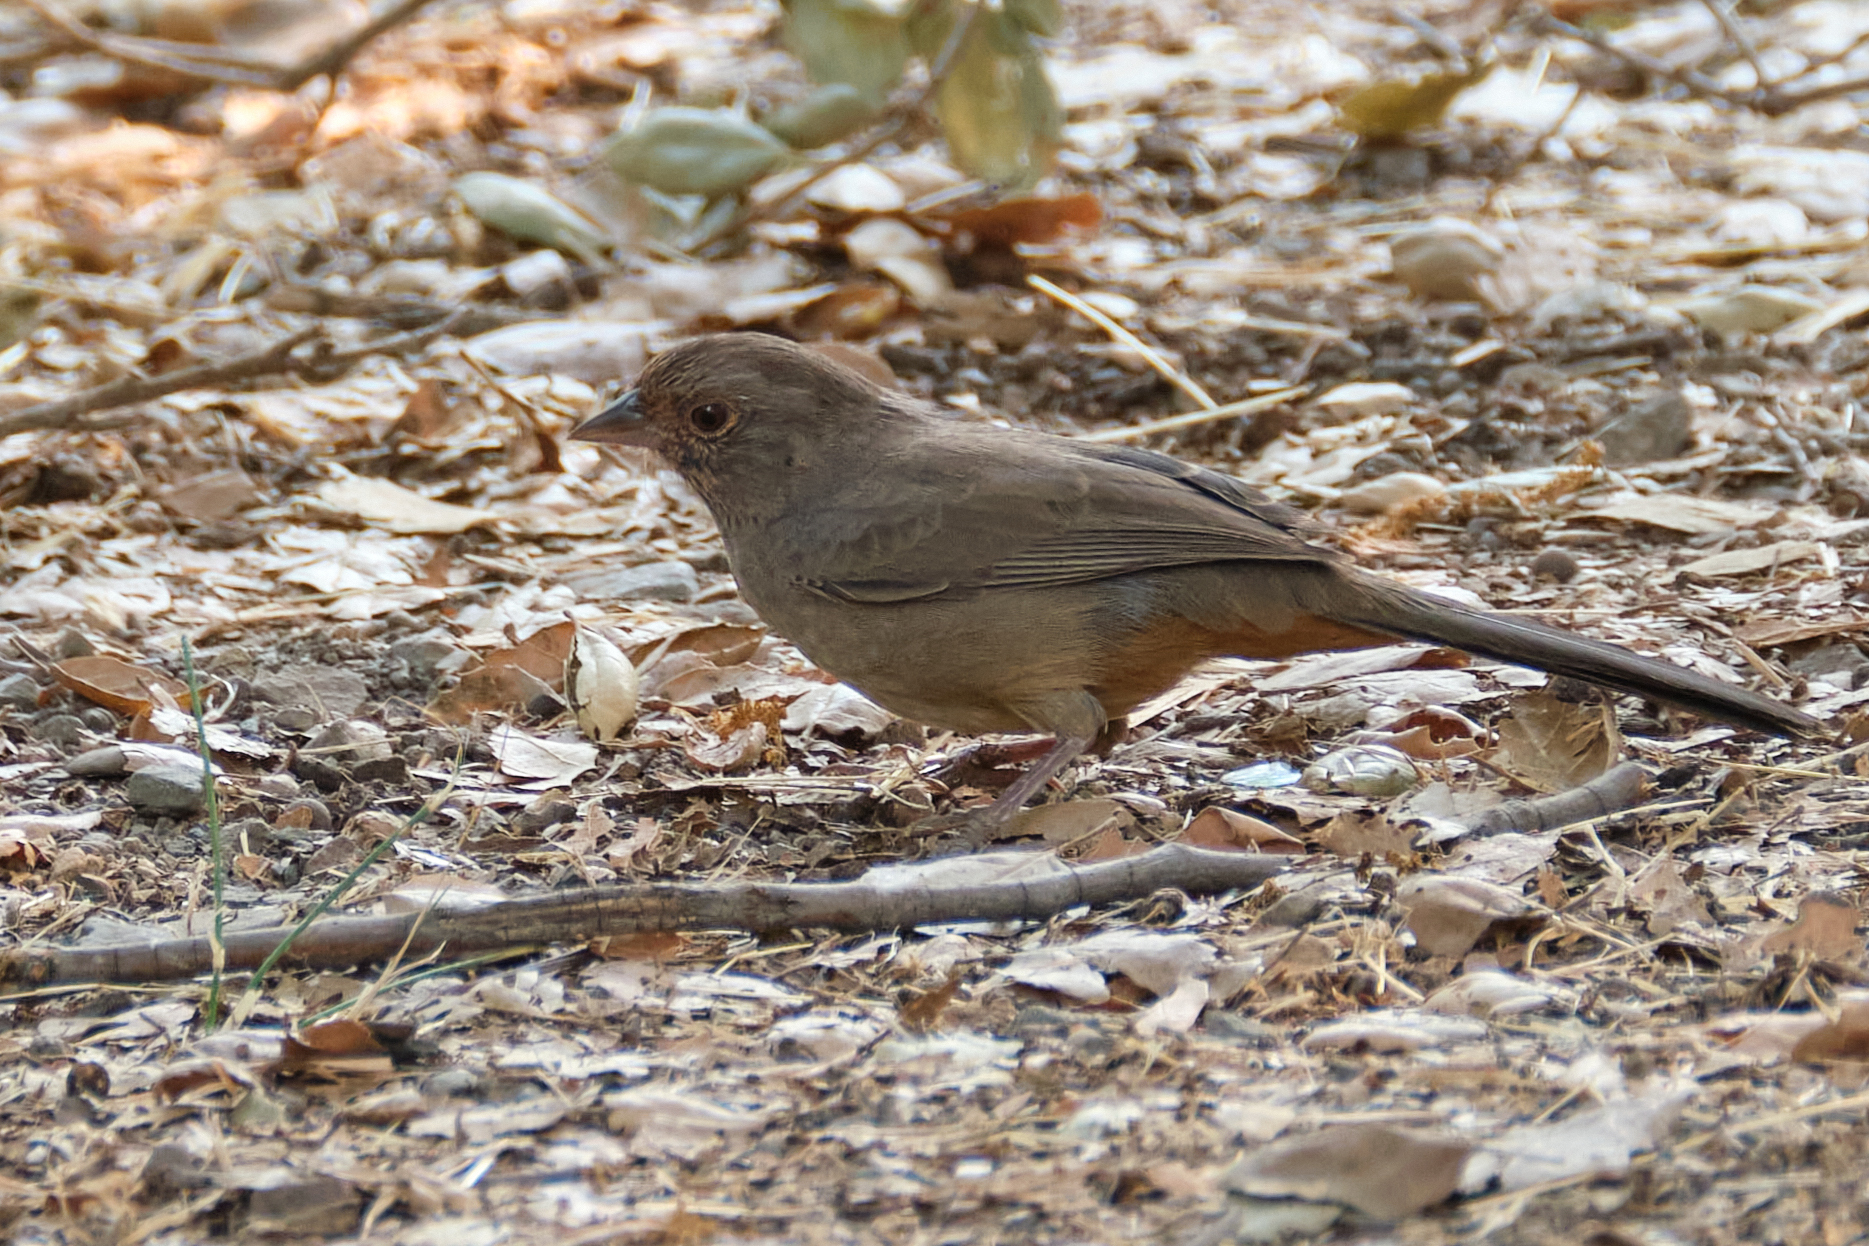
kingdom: Animalia
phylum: Chordata
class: Aves
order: Passeriformes
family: Passerellidae
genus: Melozone
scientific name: Melozone crissalis
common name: California towhee
